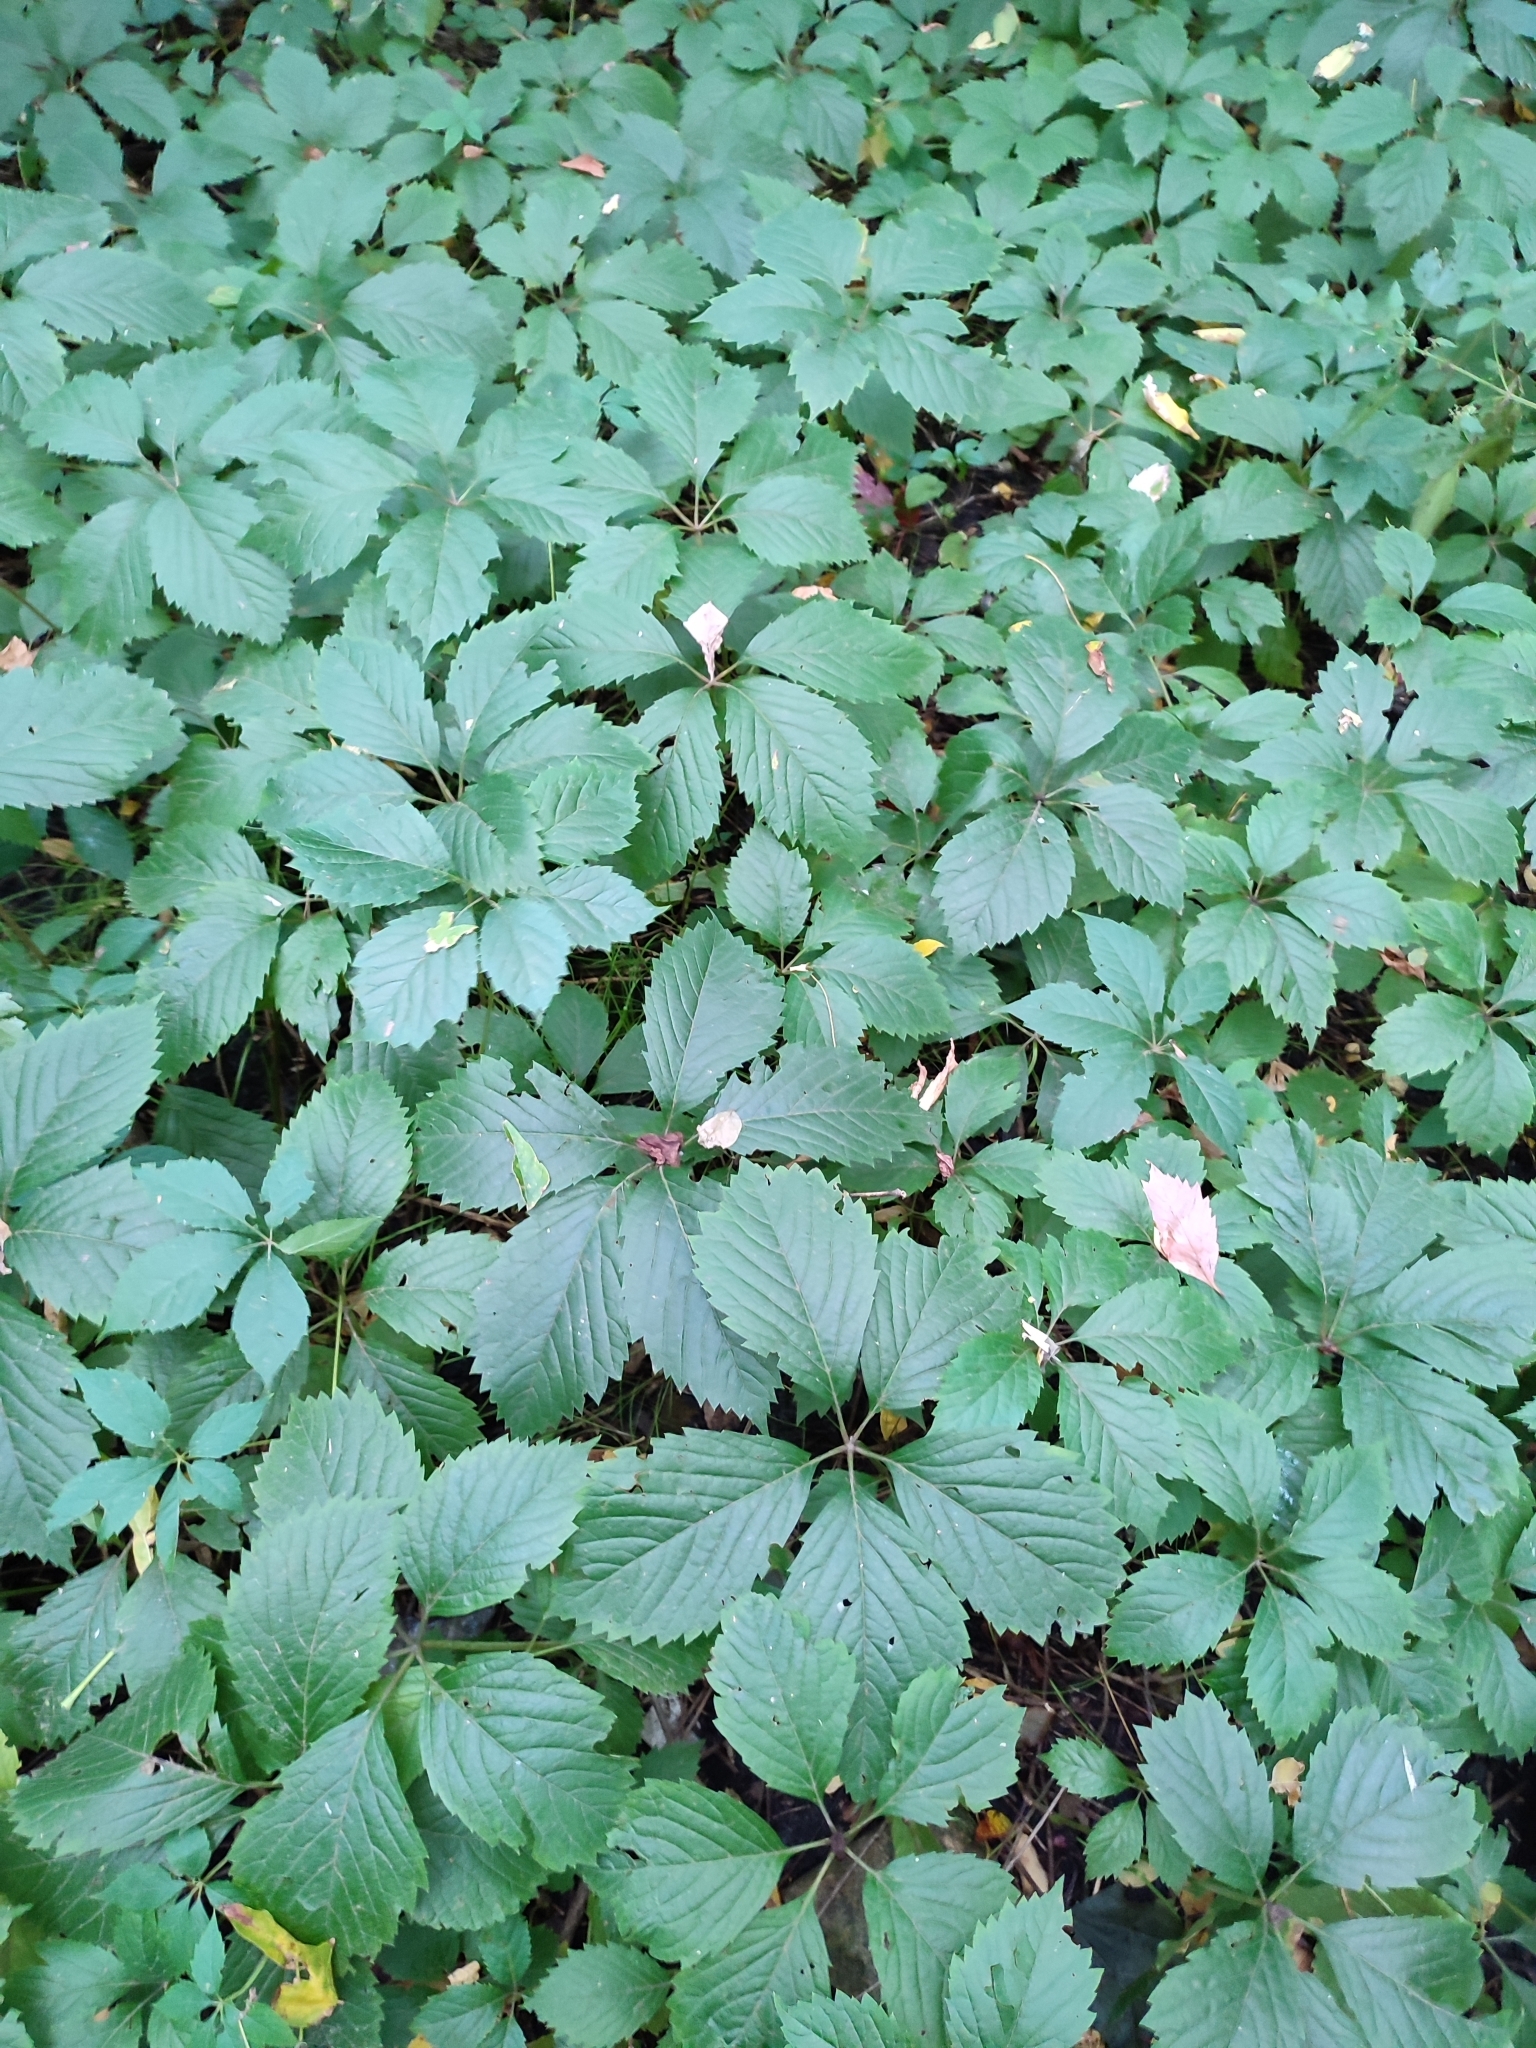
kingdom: Plantae
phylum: Tracheophyta
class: Magnoliopsida
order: Vitales
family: Vitaceae
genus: Parthenocissus
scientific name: Parthenocissus inserta
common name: False virginia-creeper
